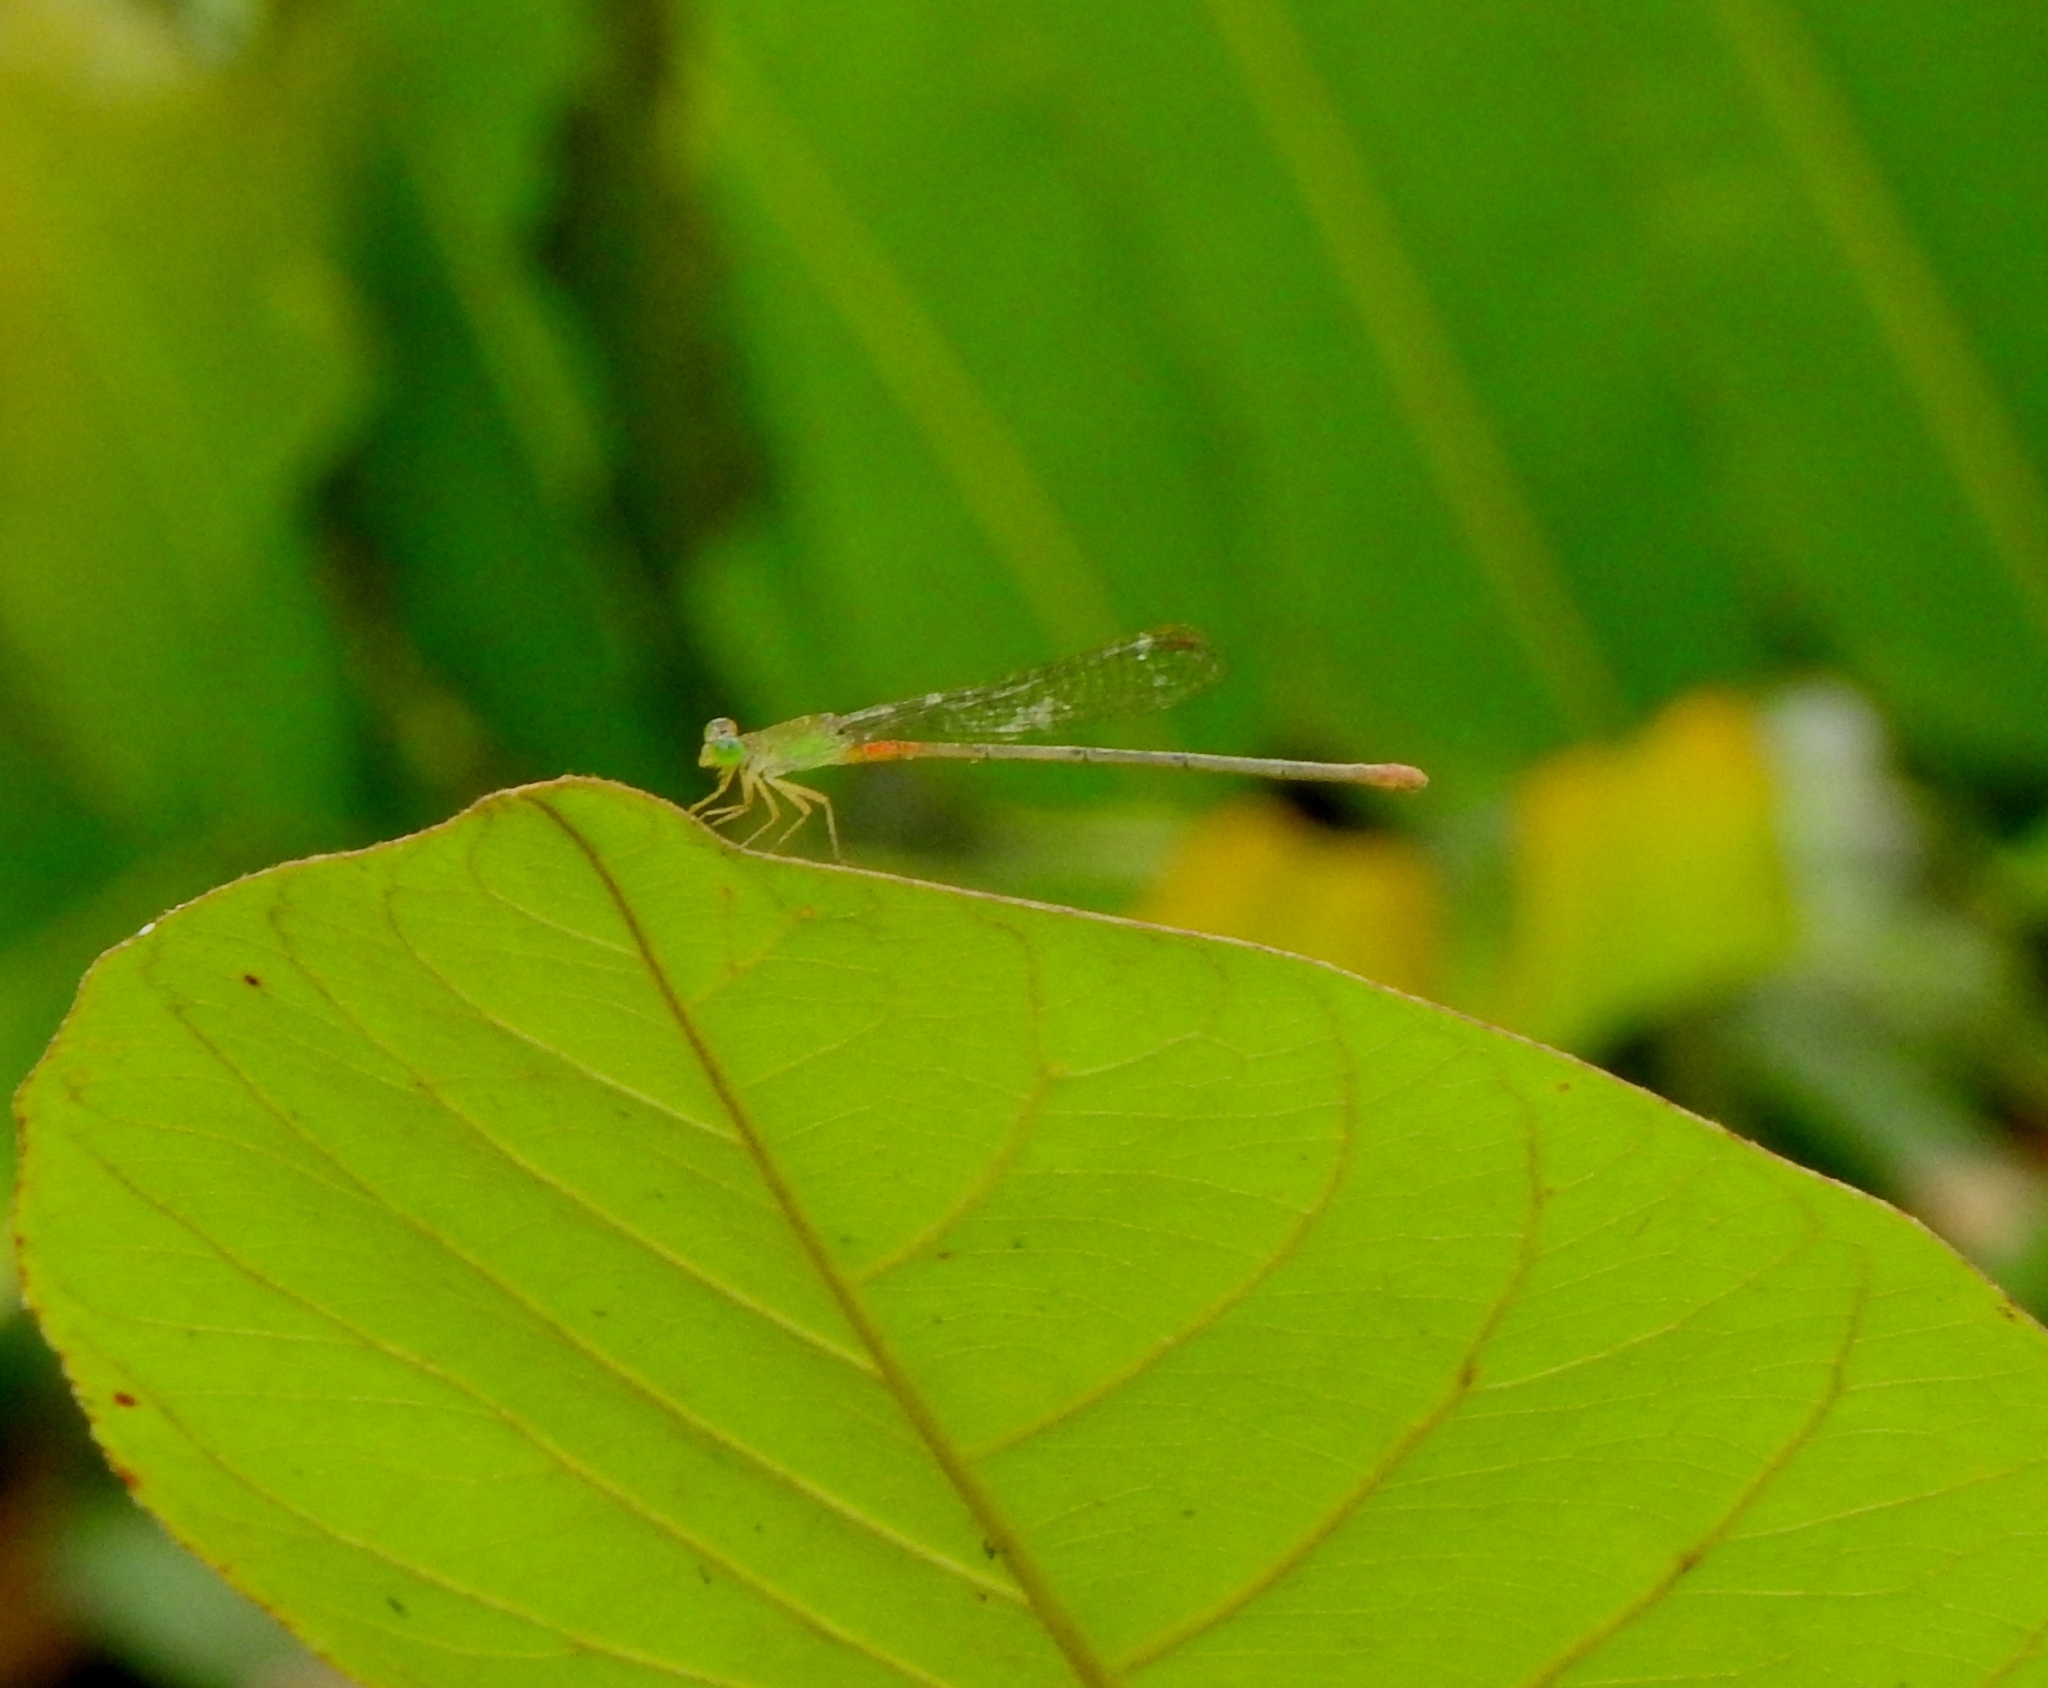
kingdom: Animalia
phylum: Arthropoda
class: Insecta
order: Odonata
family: Coenagrionidae
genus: Ceriagrion
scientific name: Ceriagrion cerinorubellum
